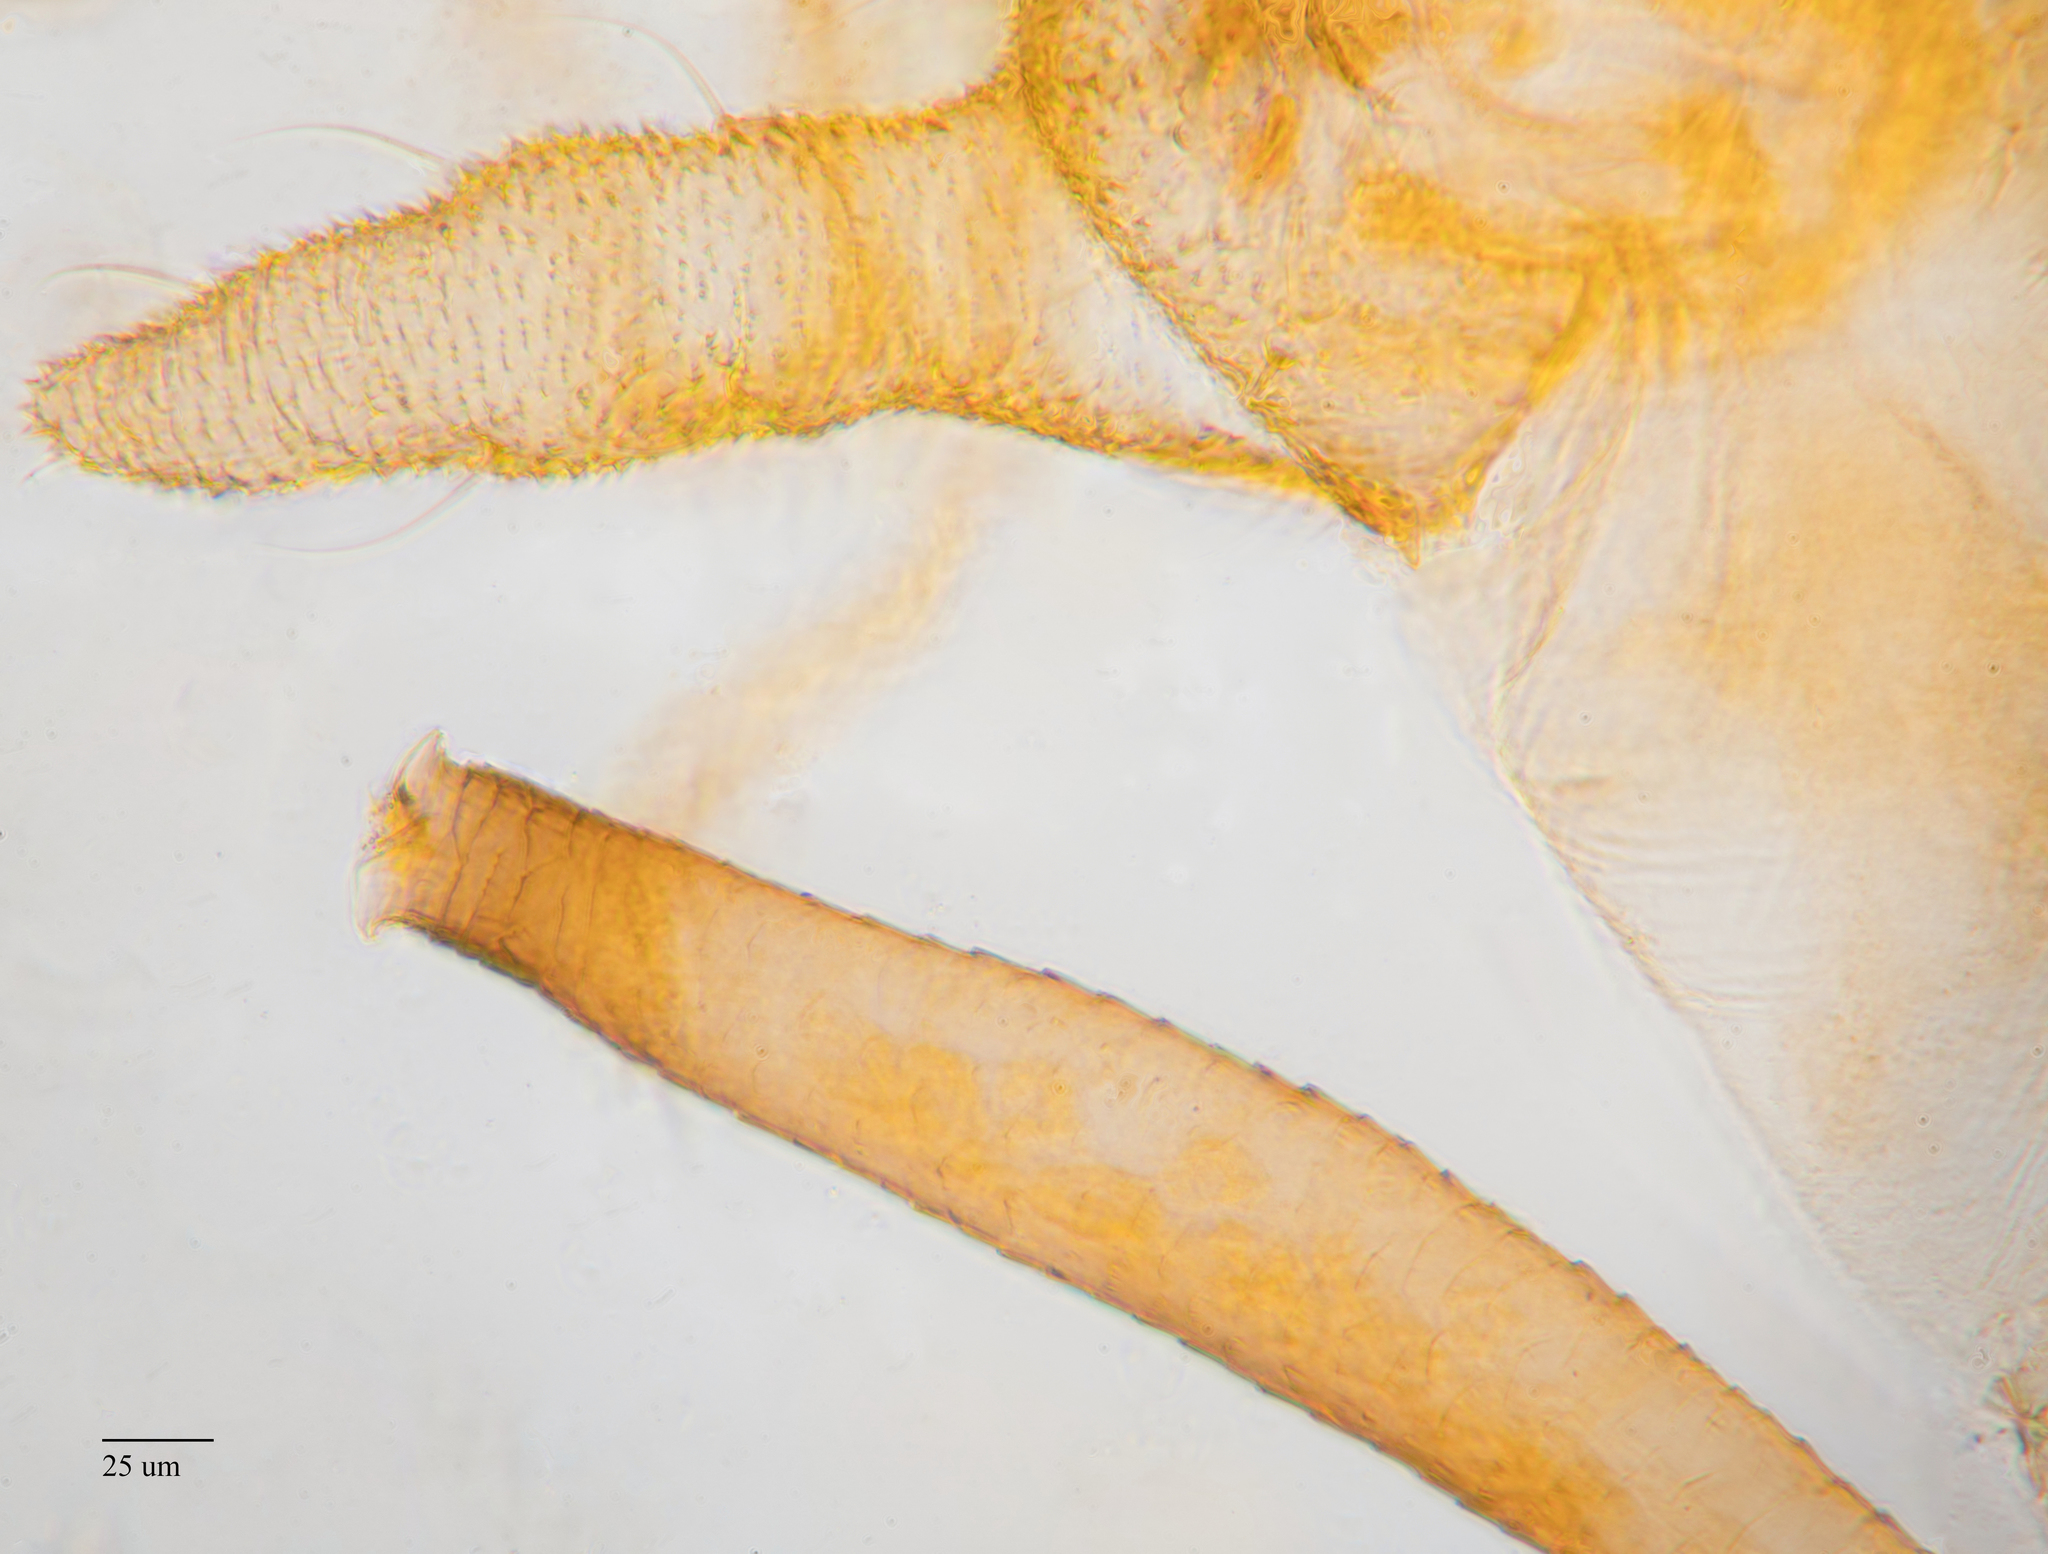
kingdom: Animalia
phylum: Arthropoda
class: Insecta
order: Hemiptera
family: Aphididae
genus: Wahlgreniella
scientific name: Wahlgreniella nervata
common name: Pale green aphid
